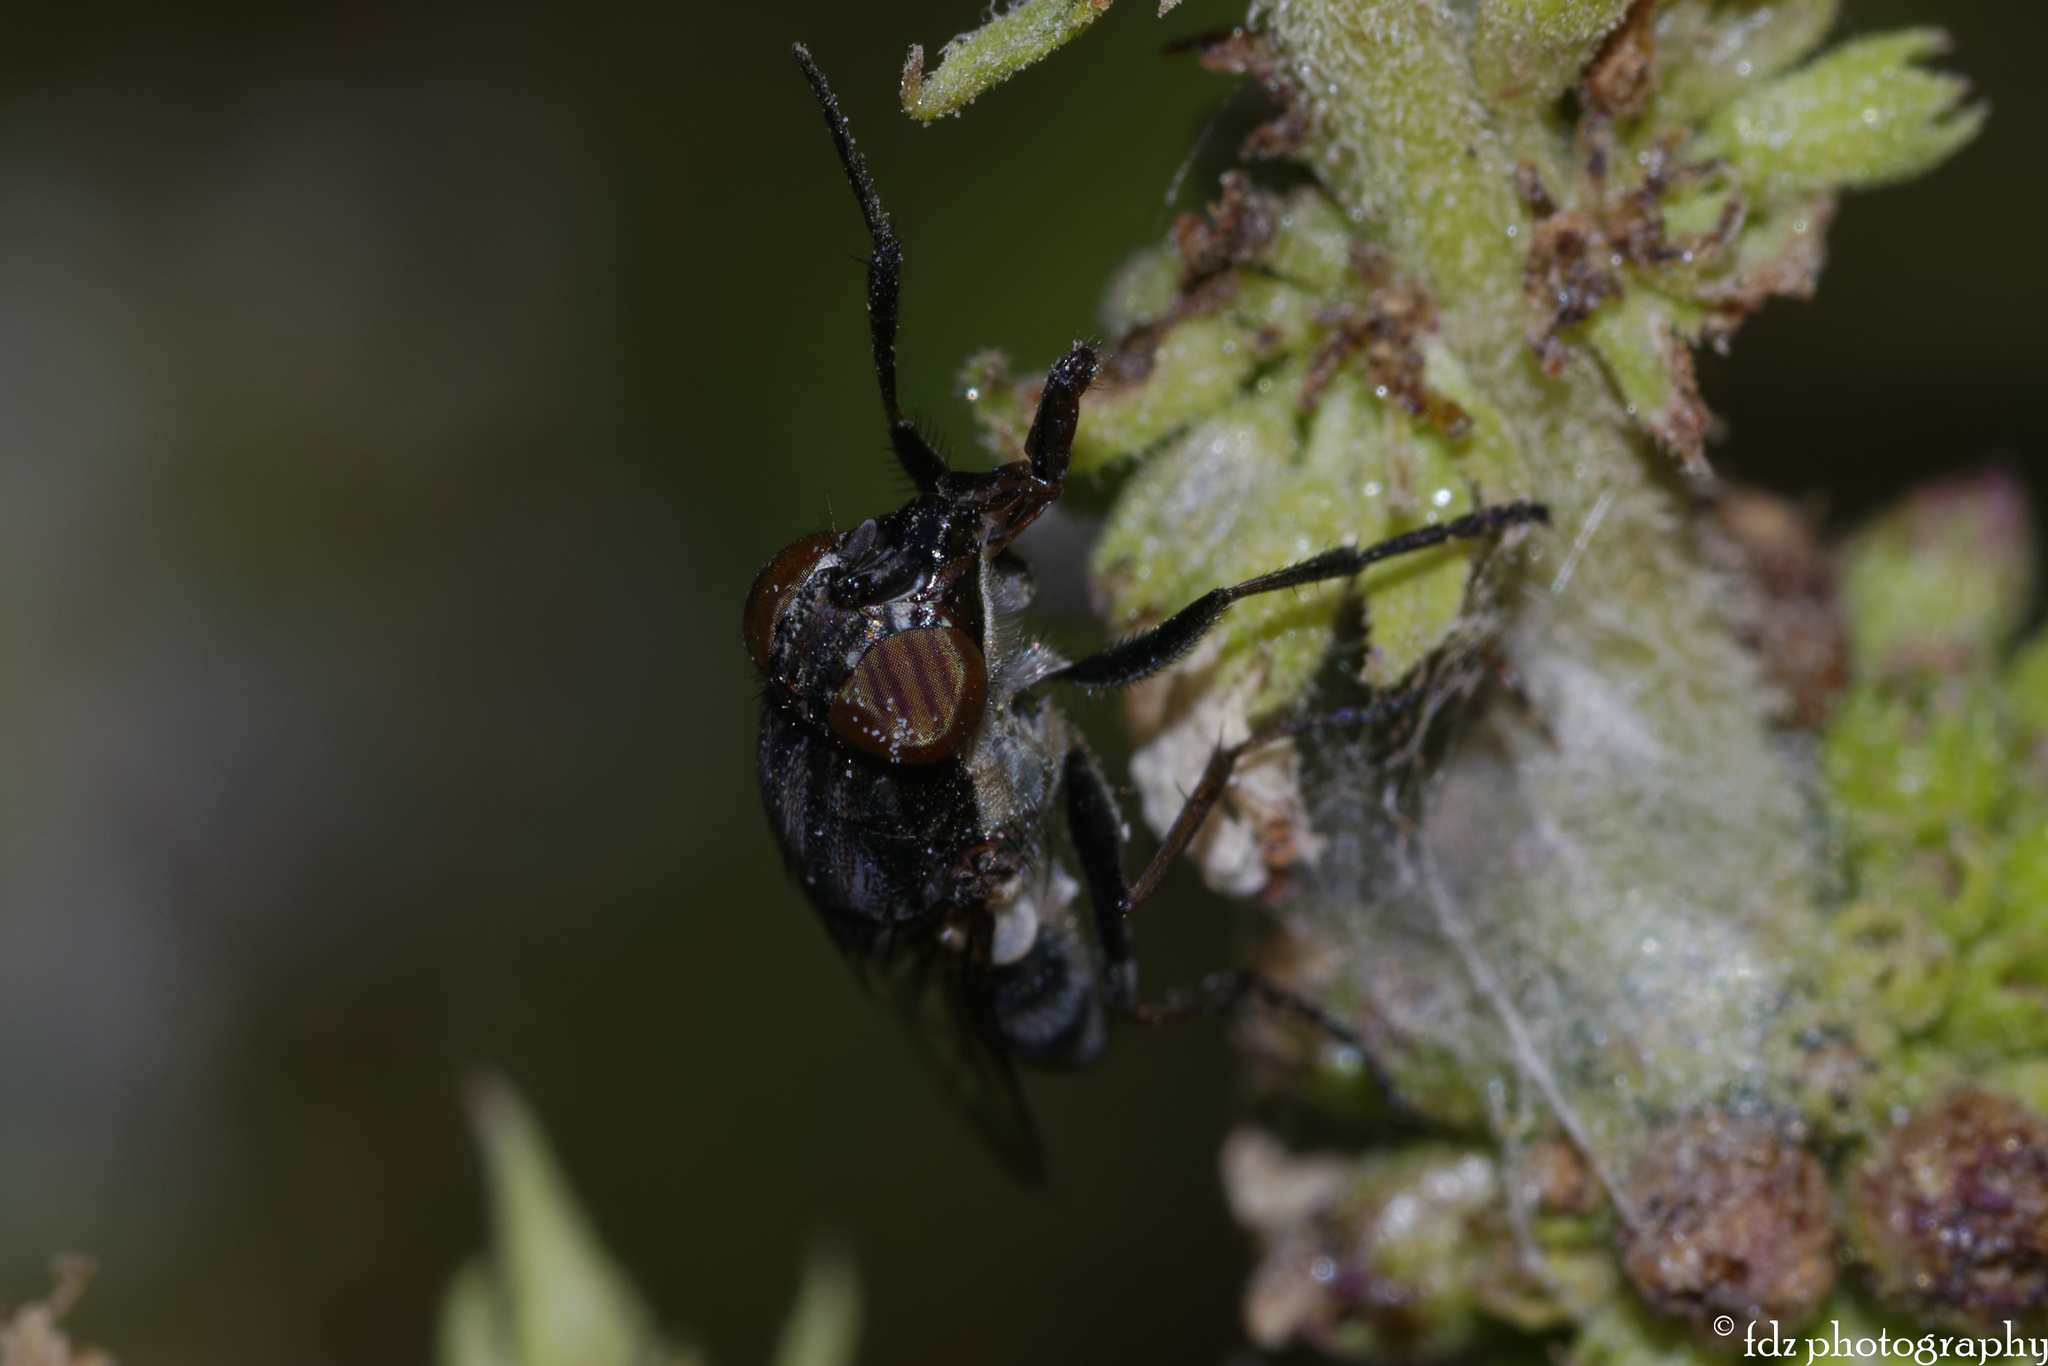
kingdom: Animalia
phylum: Arthropoda
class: Insecta
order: Diptera
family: Calliphoridae
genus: Stomorhina
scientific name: Stomorhina lunata
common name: Locust blowfly
